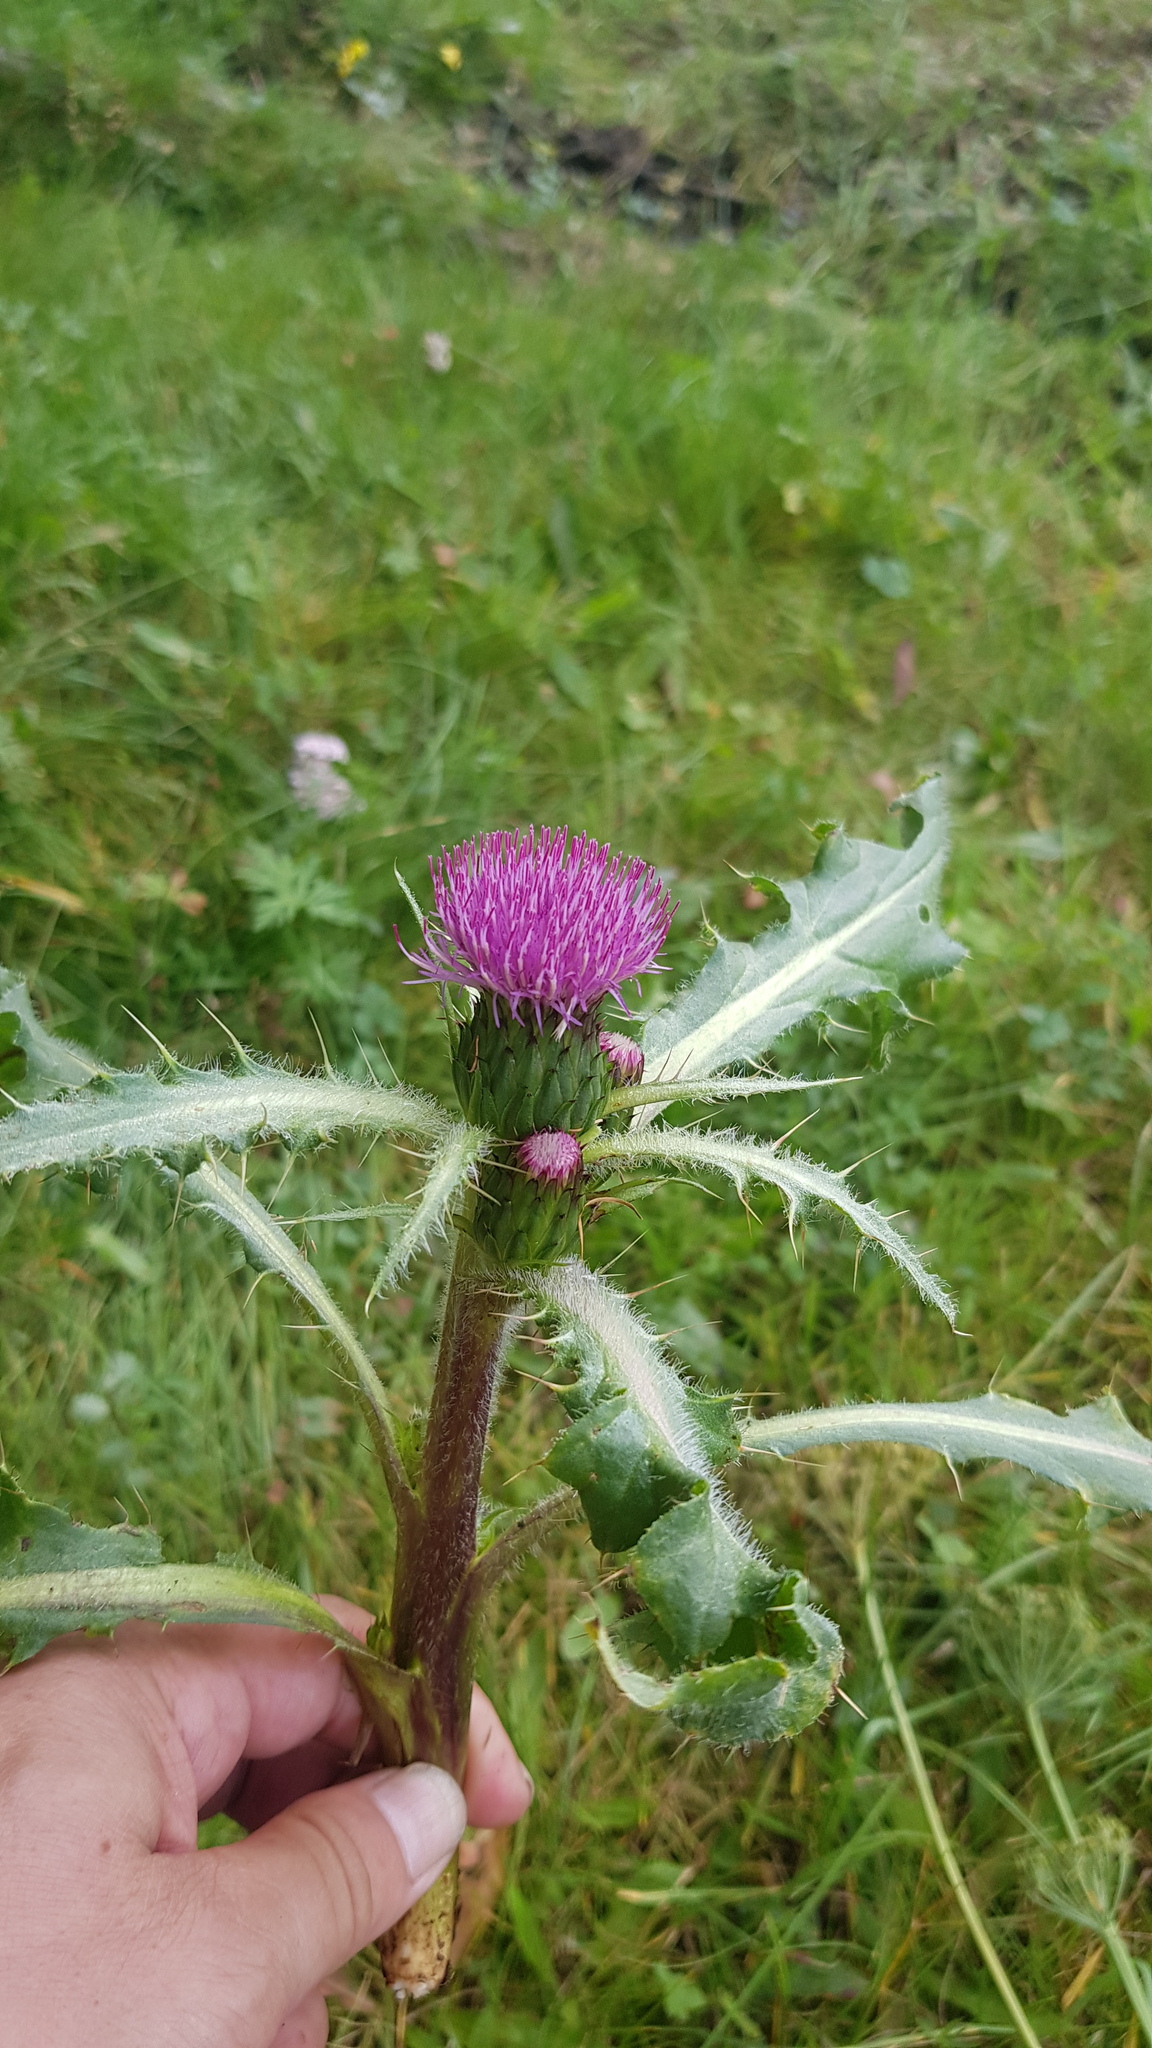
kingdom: Plantae
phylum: Tracheophyta
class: Magnoliopsida
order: Asterales
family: Asteraceae
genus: Cirsium
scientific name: Cirsium esculentum
